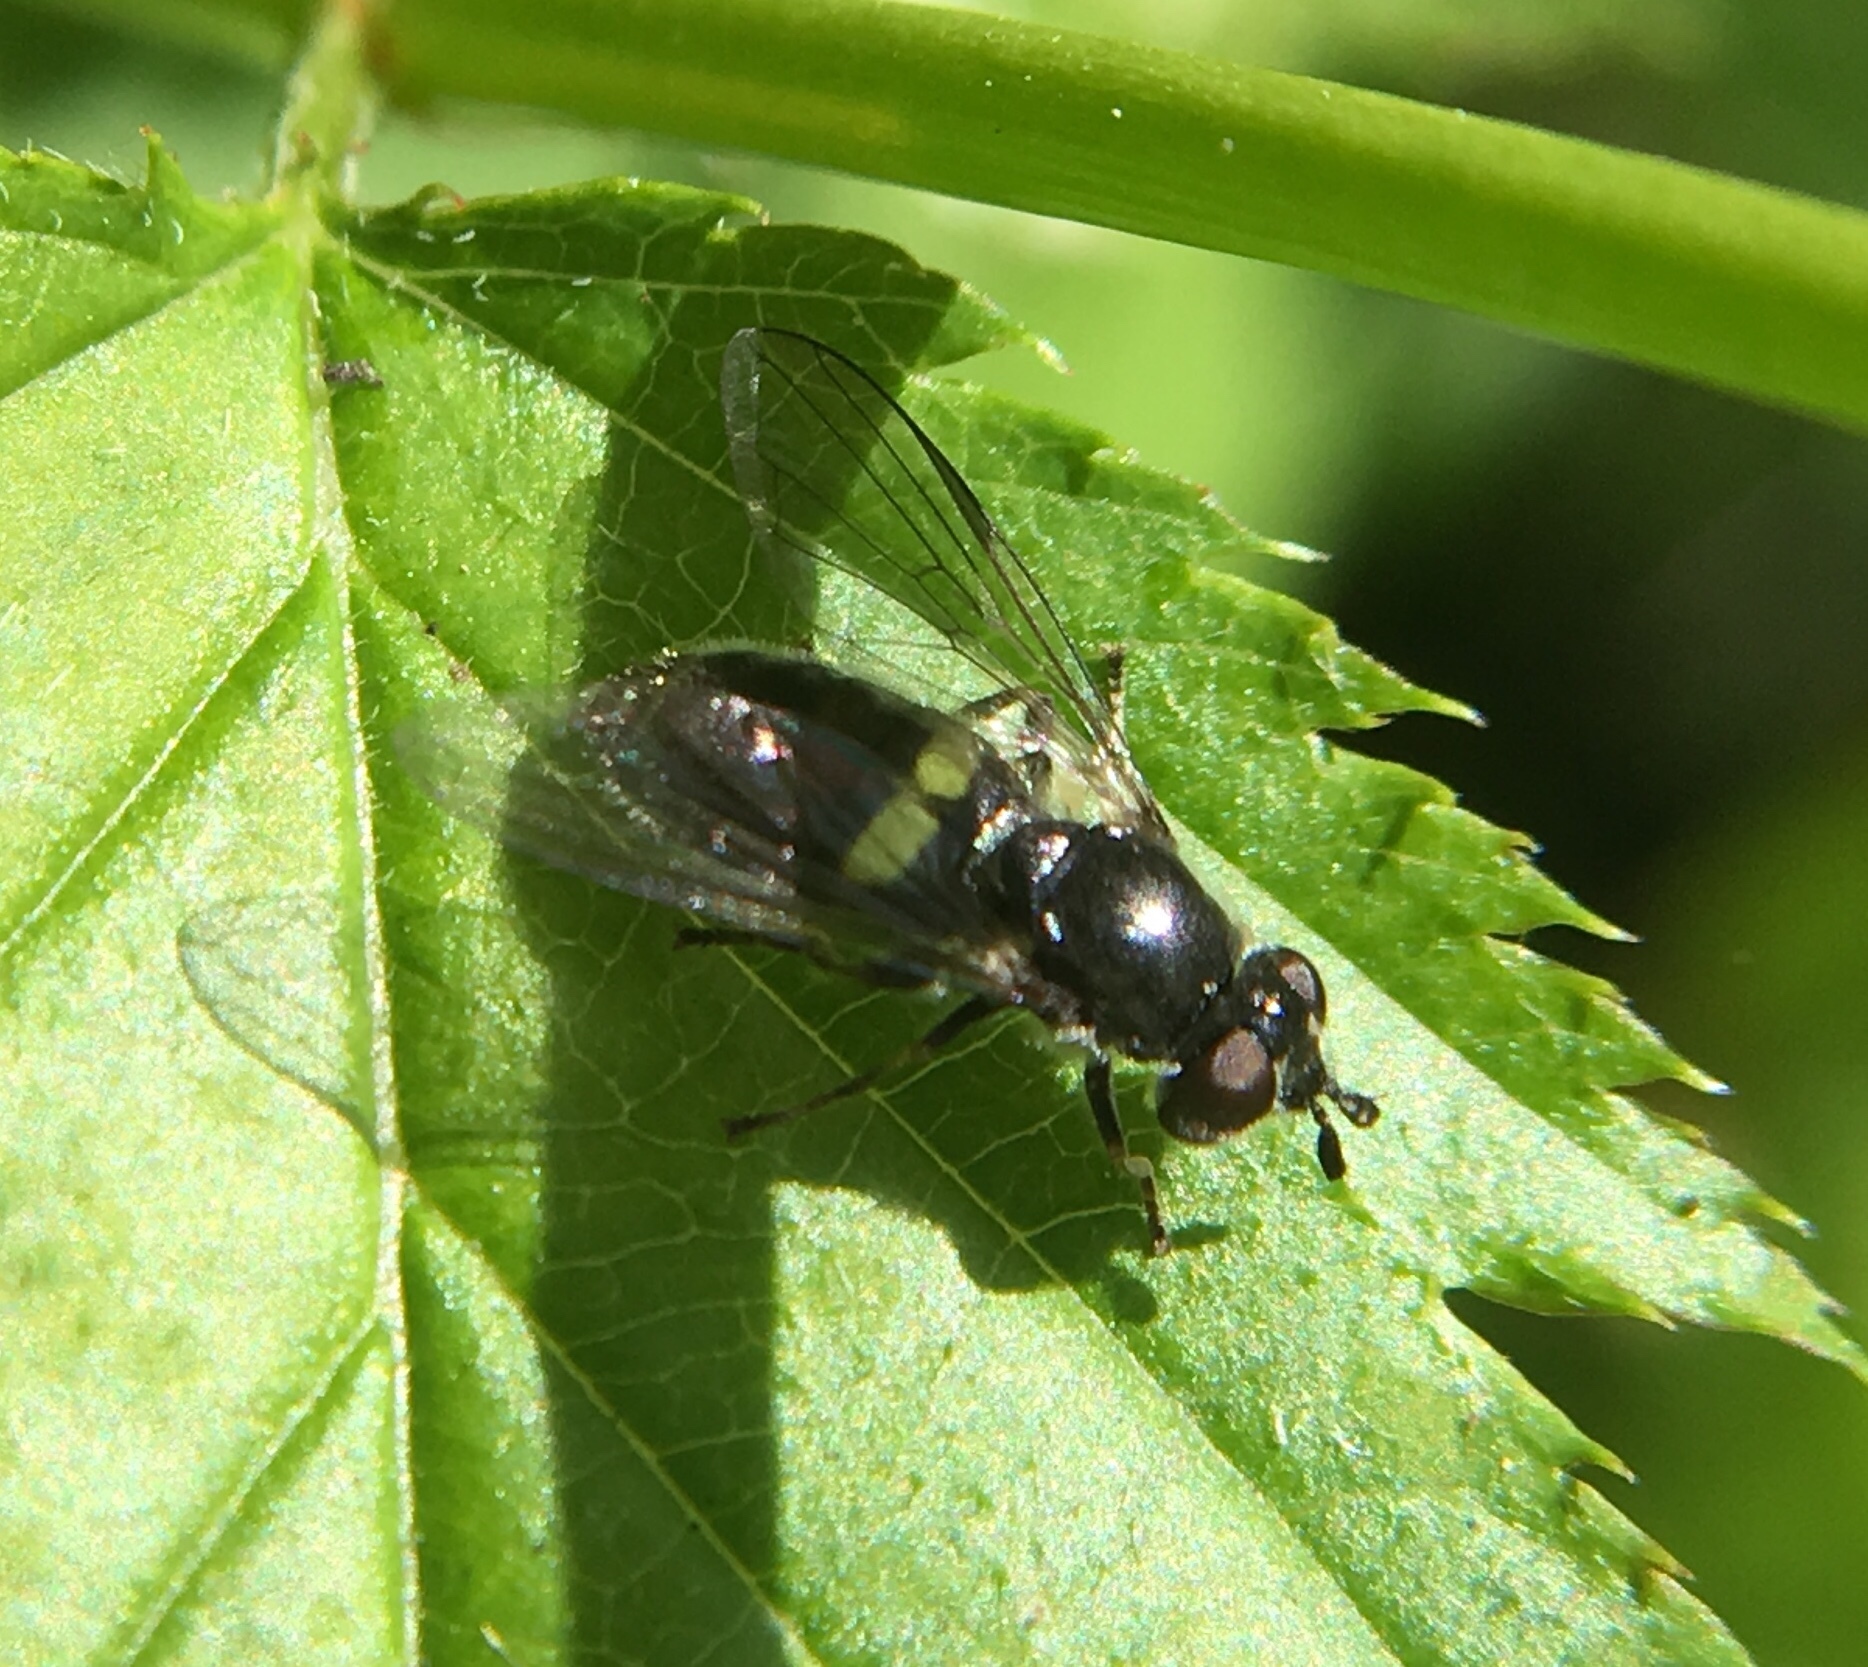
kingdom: Animalia
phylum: Arthropoda
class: Insecta
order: Diptera
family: Syrphidae
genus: Pipiza
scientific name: Pipiza
